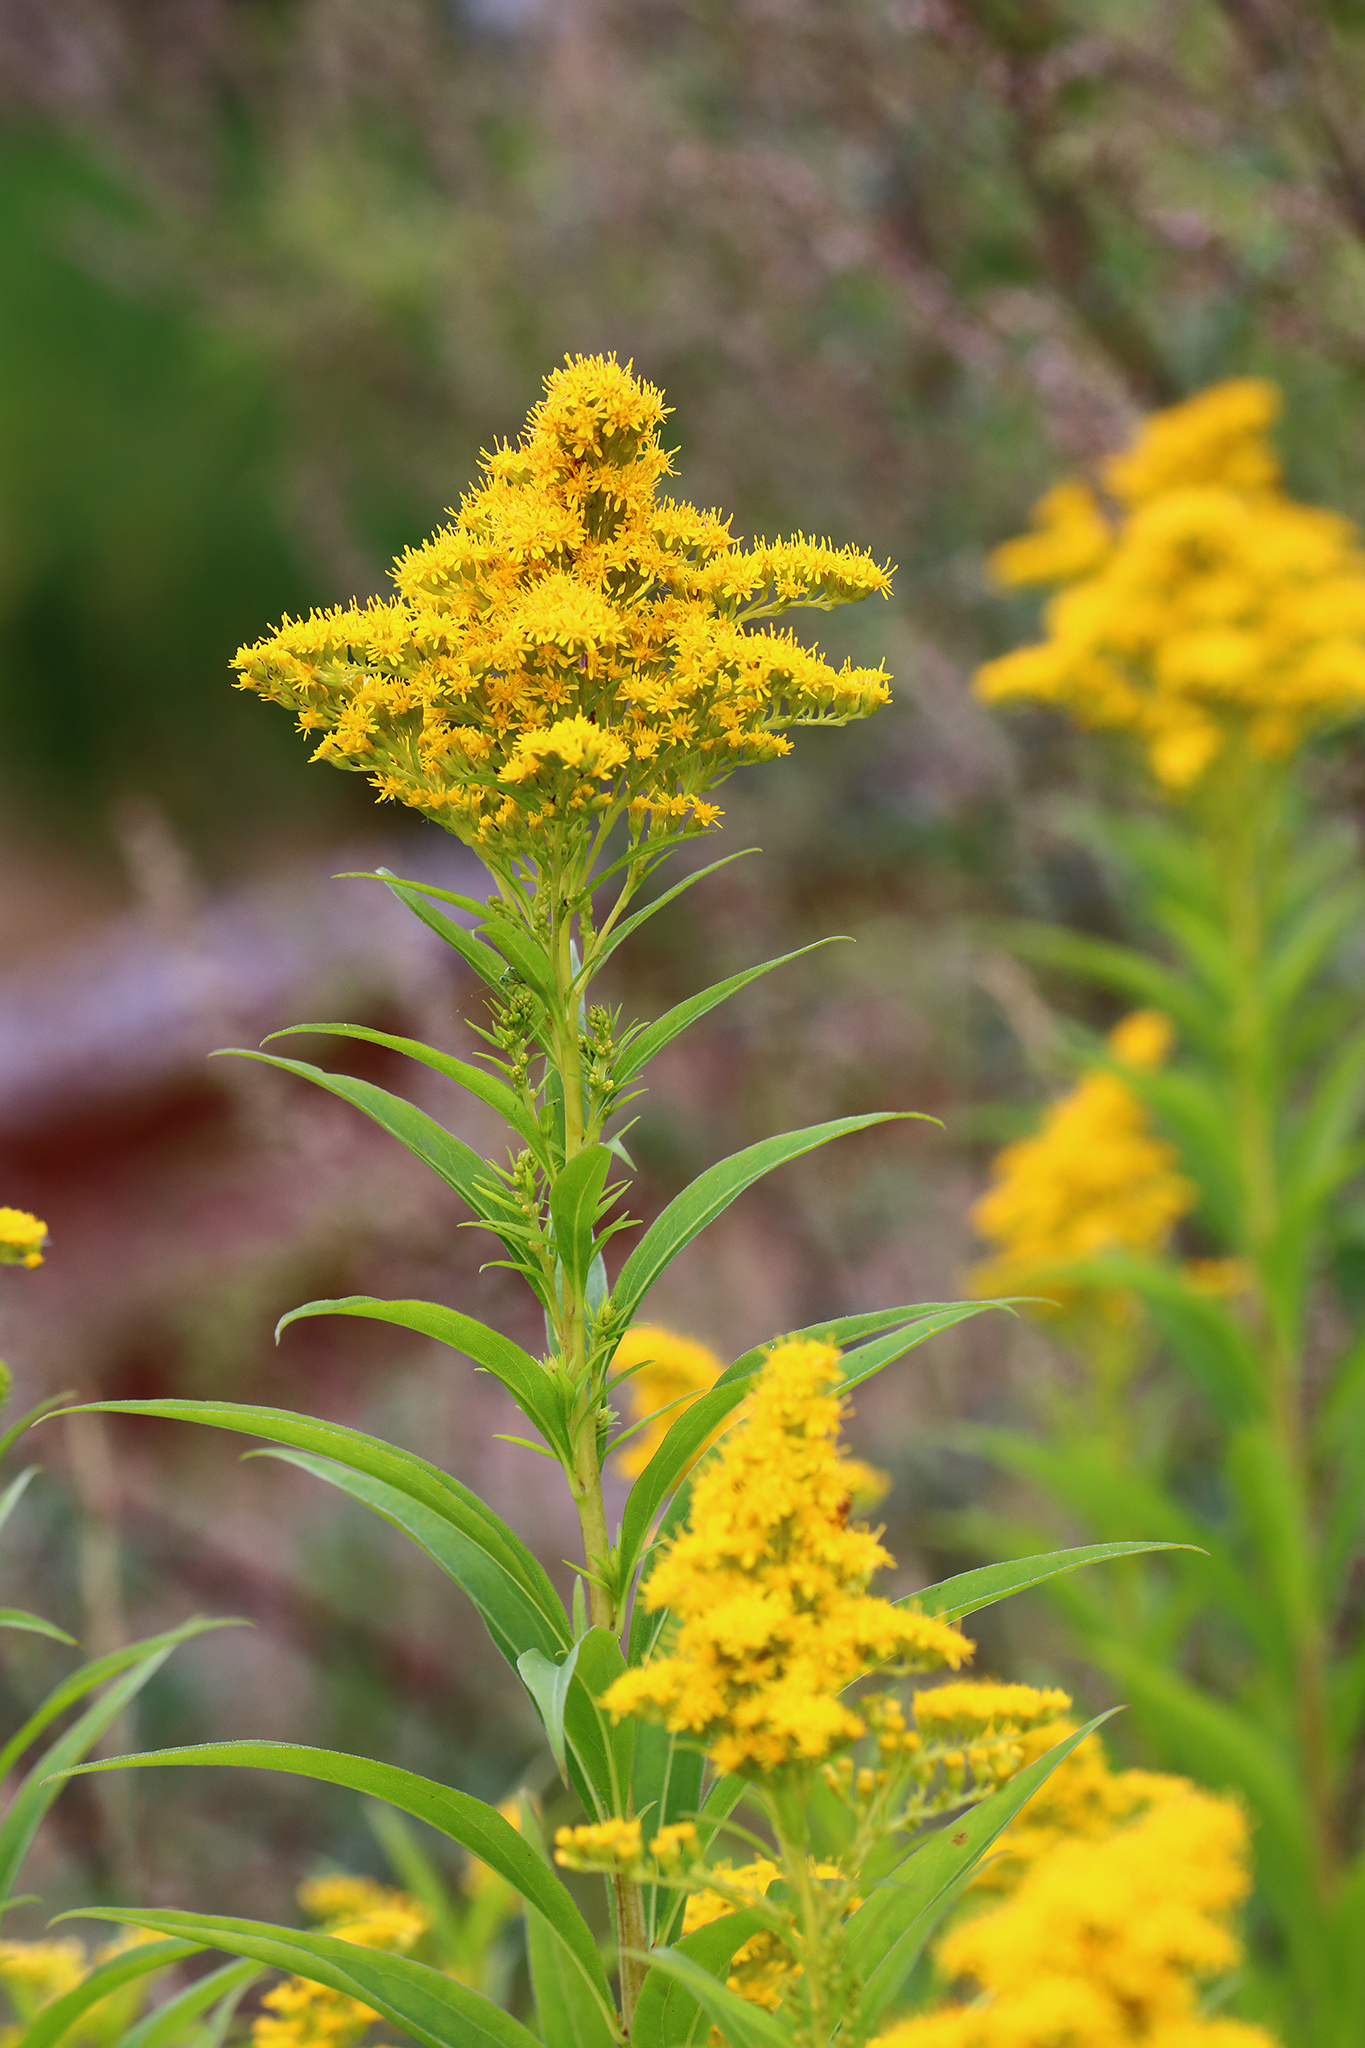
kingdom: Plantae
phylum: Tracheophyta
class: Magnoliopsida
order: Asterales
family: Asteraceae
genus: Solidago
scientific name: Solidago gigantea
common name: Giant goldenrod
